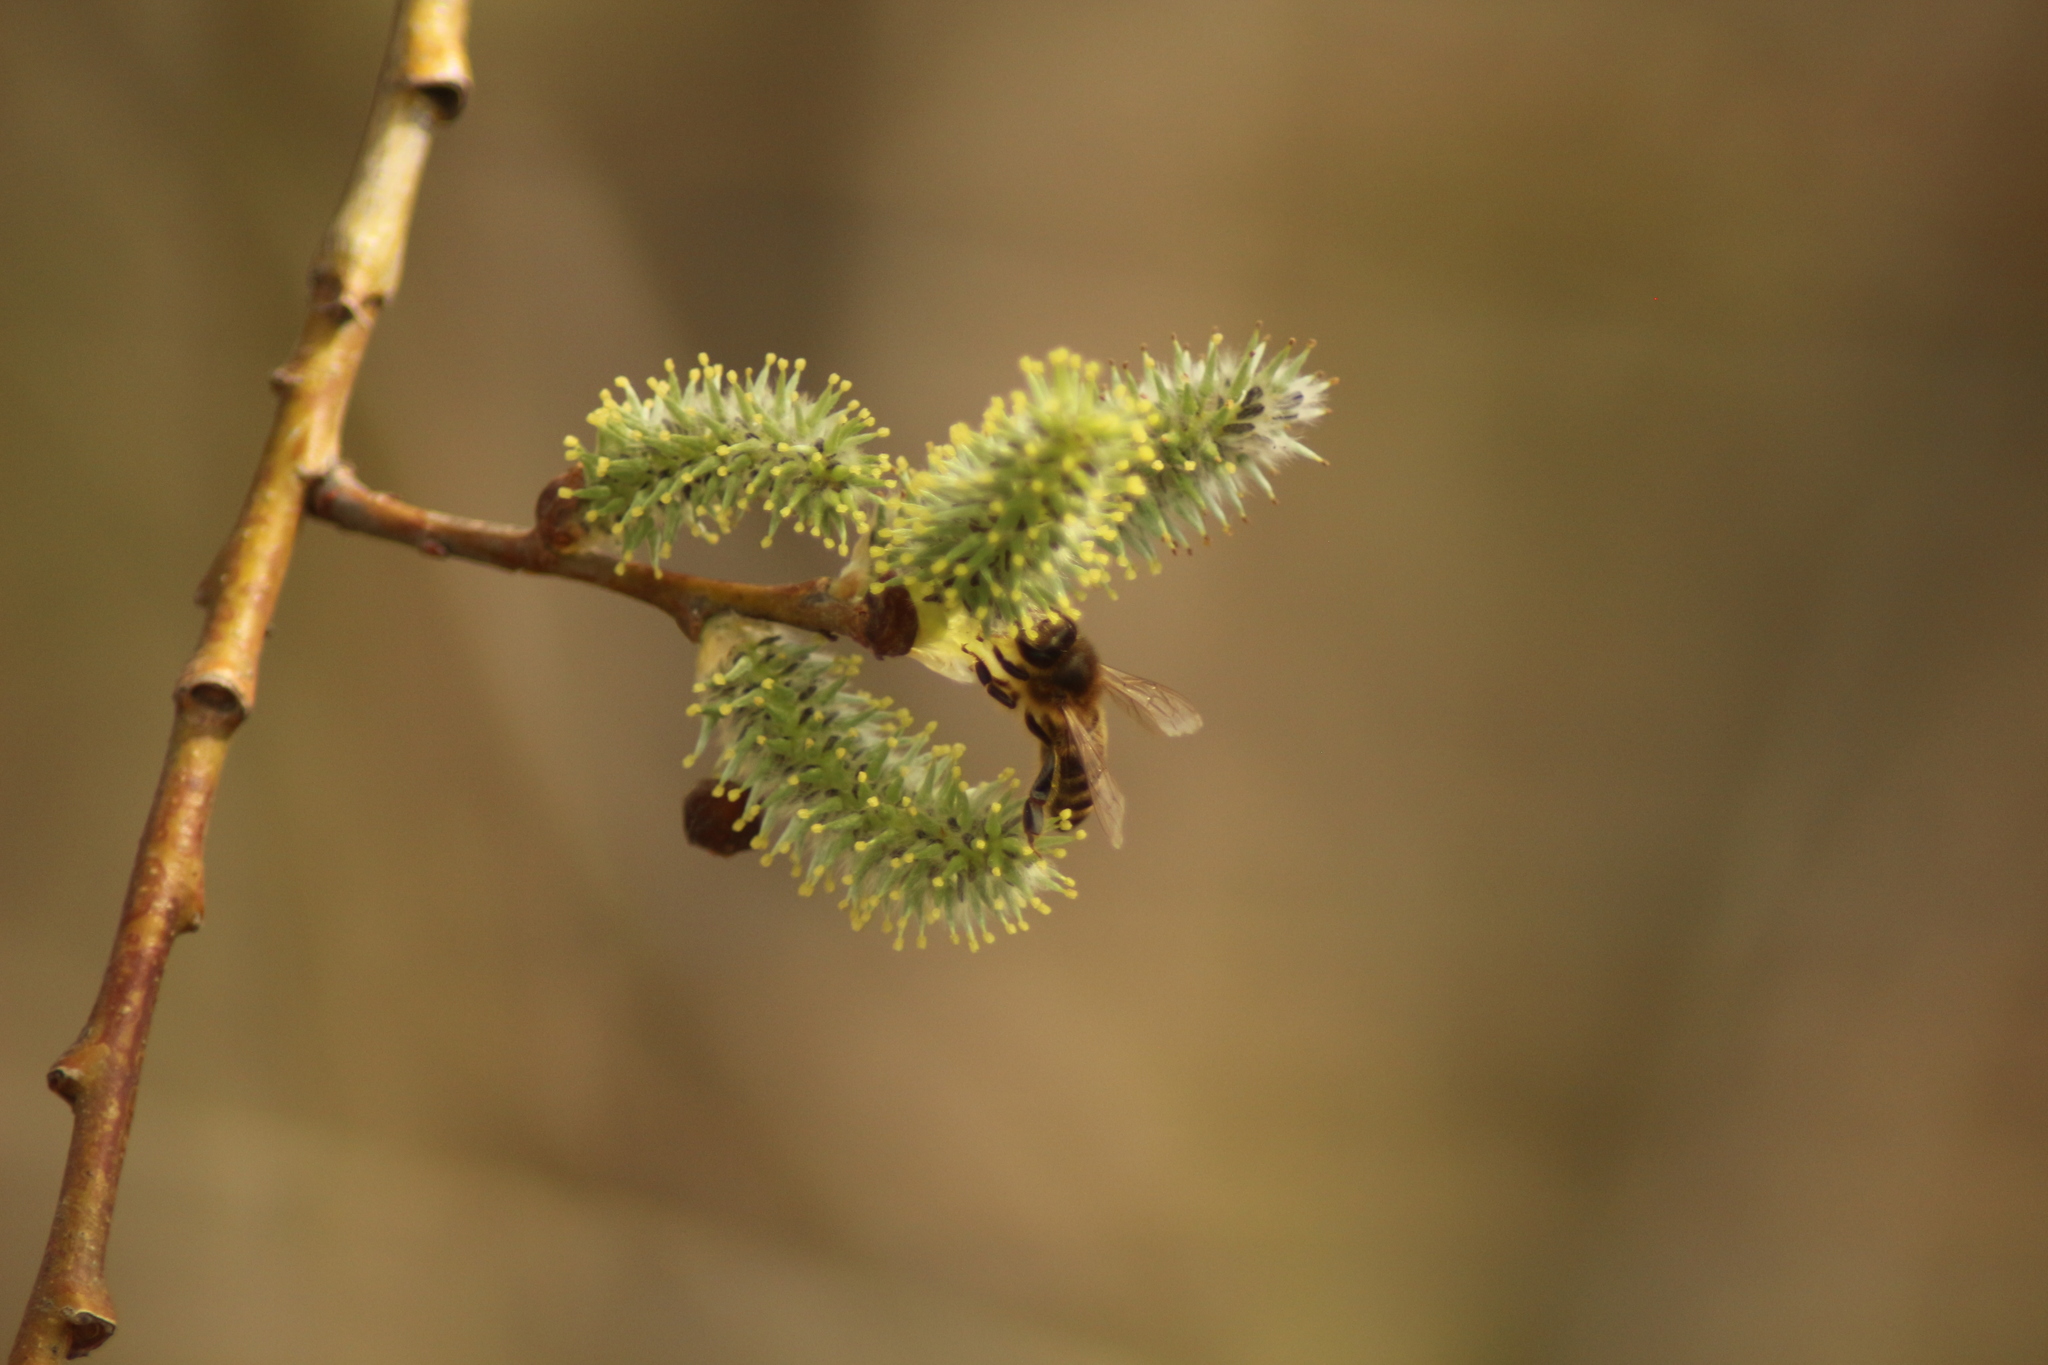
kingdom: Plantae
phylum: Tracheophyta
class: Magnoliopsida
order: Malpighiales
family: Salicaceae
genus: Salix
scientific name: Salix caprea
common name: Goat willow
